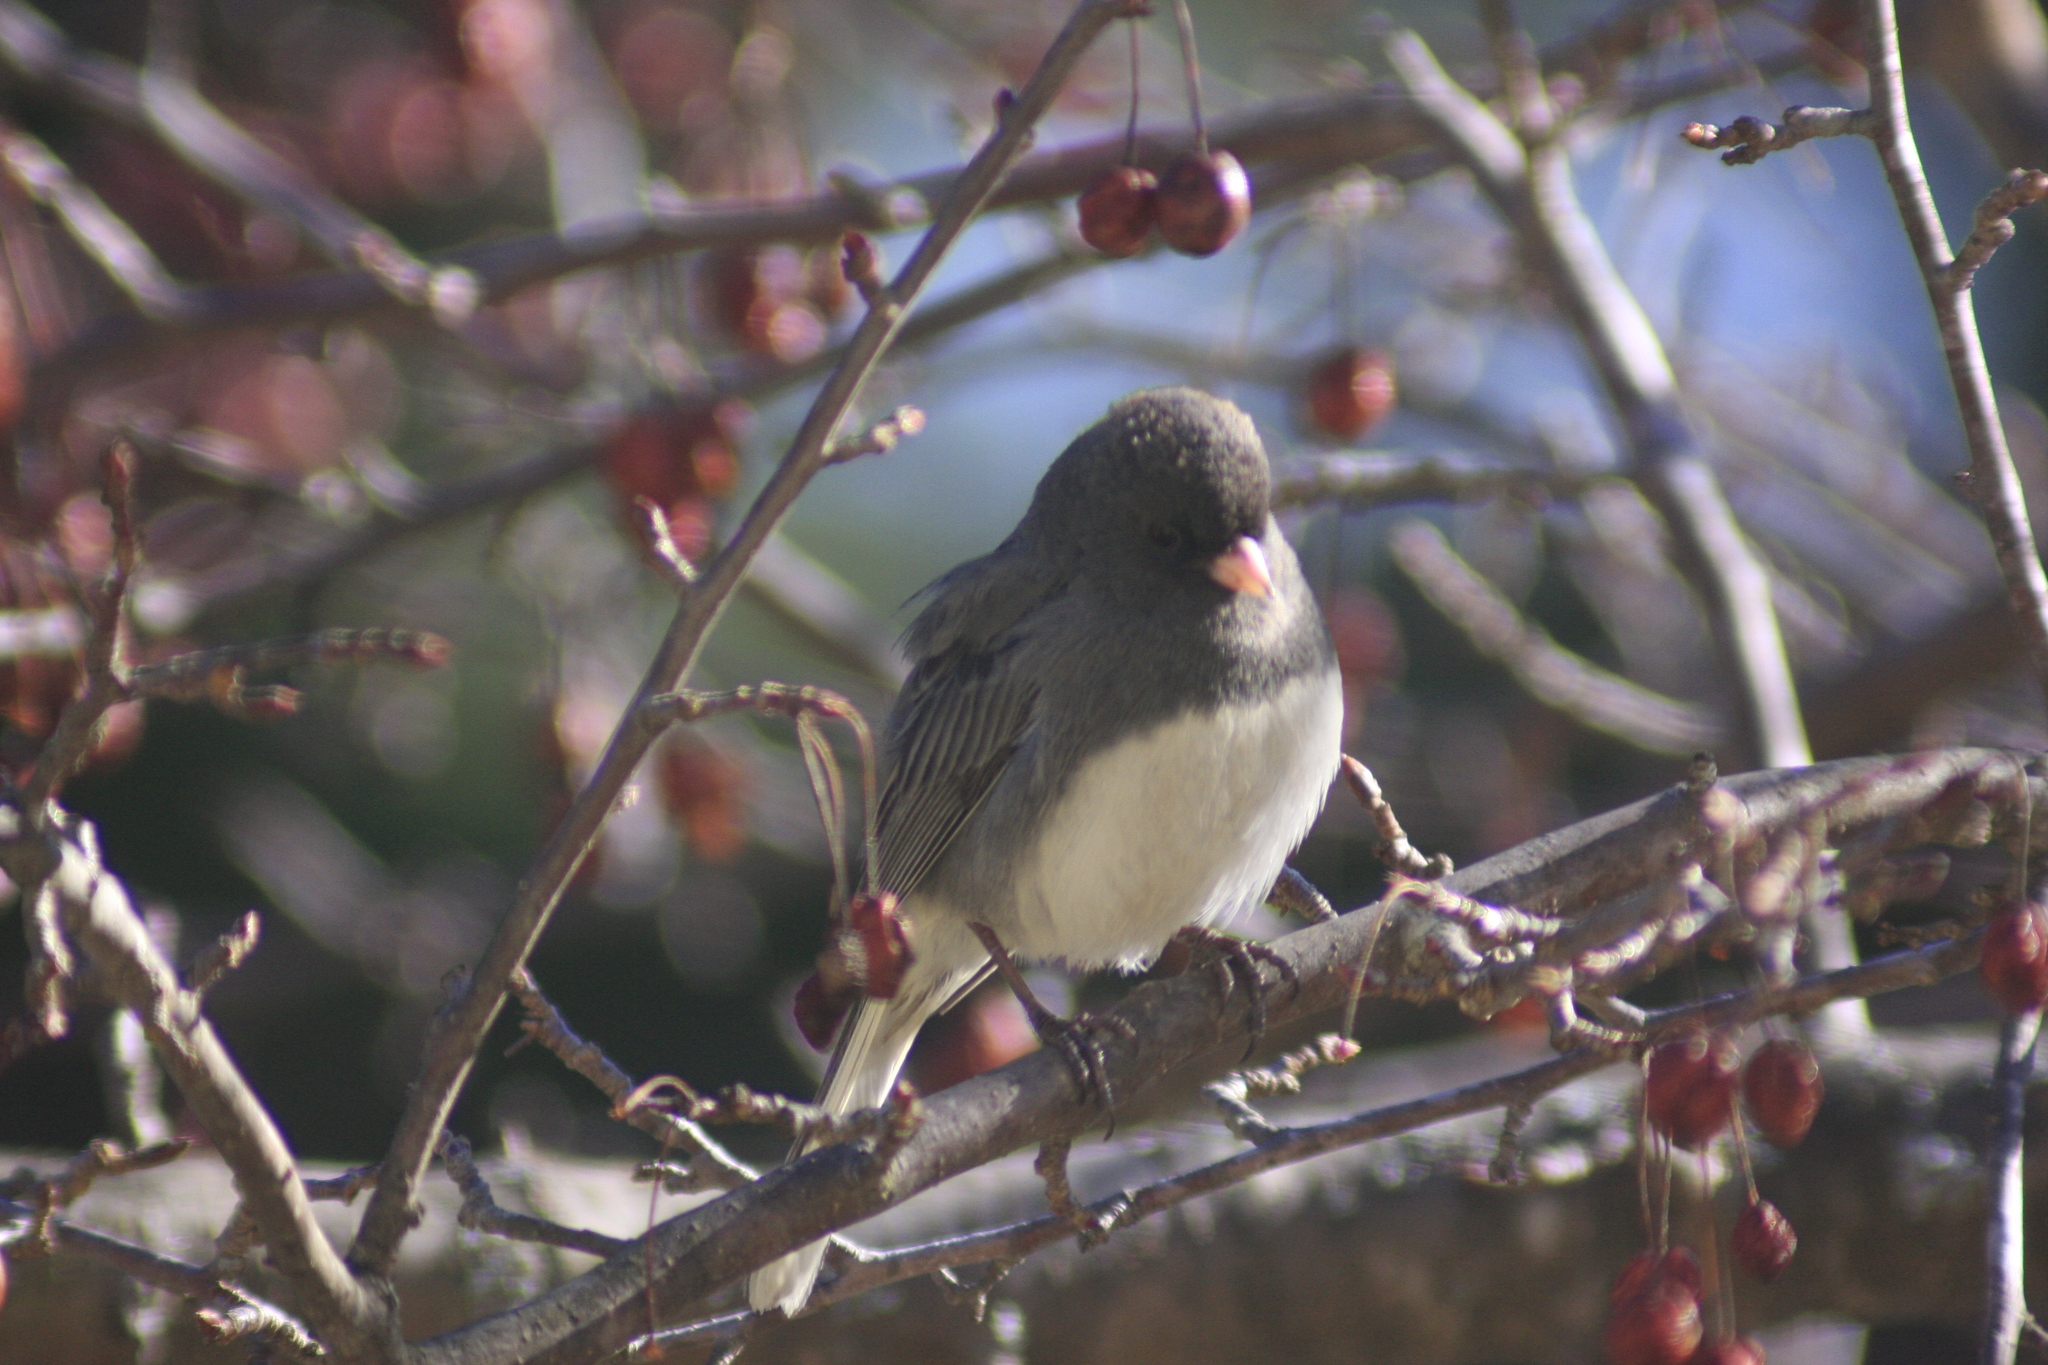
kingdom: Animalia
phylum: Chordata
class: Aves
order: Passeriformes
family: Passerellidae
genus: Junco
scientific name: Junco hyemalis
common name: Dark-eyed junco
